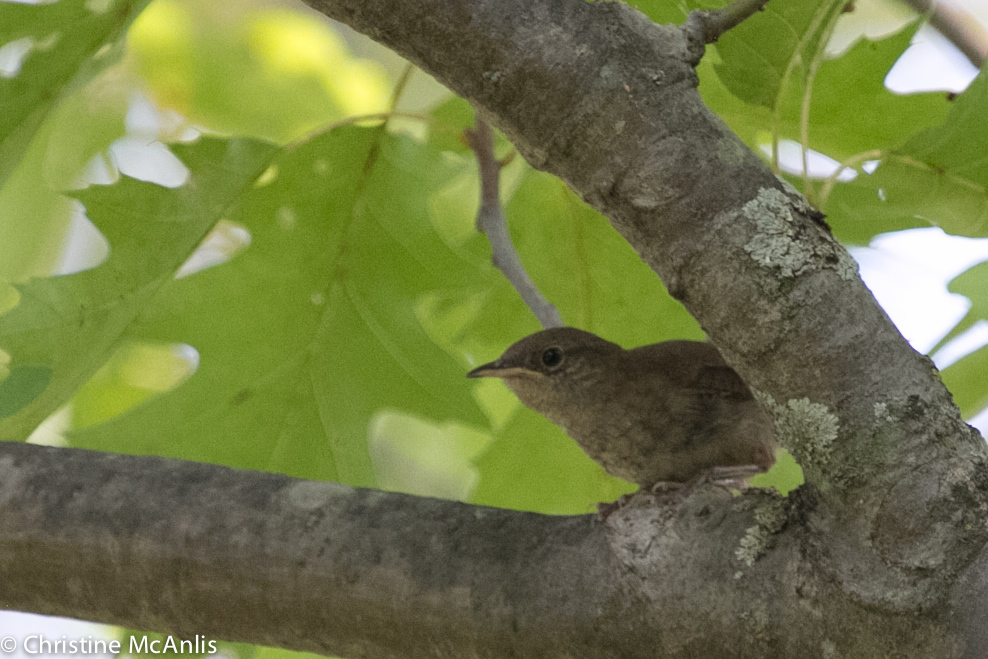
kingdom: Animalia
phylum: Chordata
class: Aves
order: Passeriformes
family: Troglodytidae
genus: Troglodytes
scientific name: Troglodytes aedon
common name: House wren
